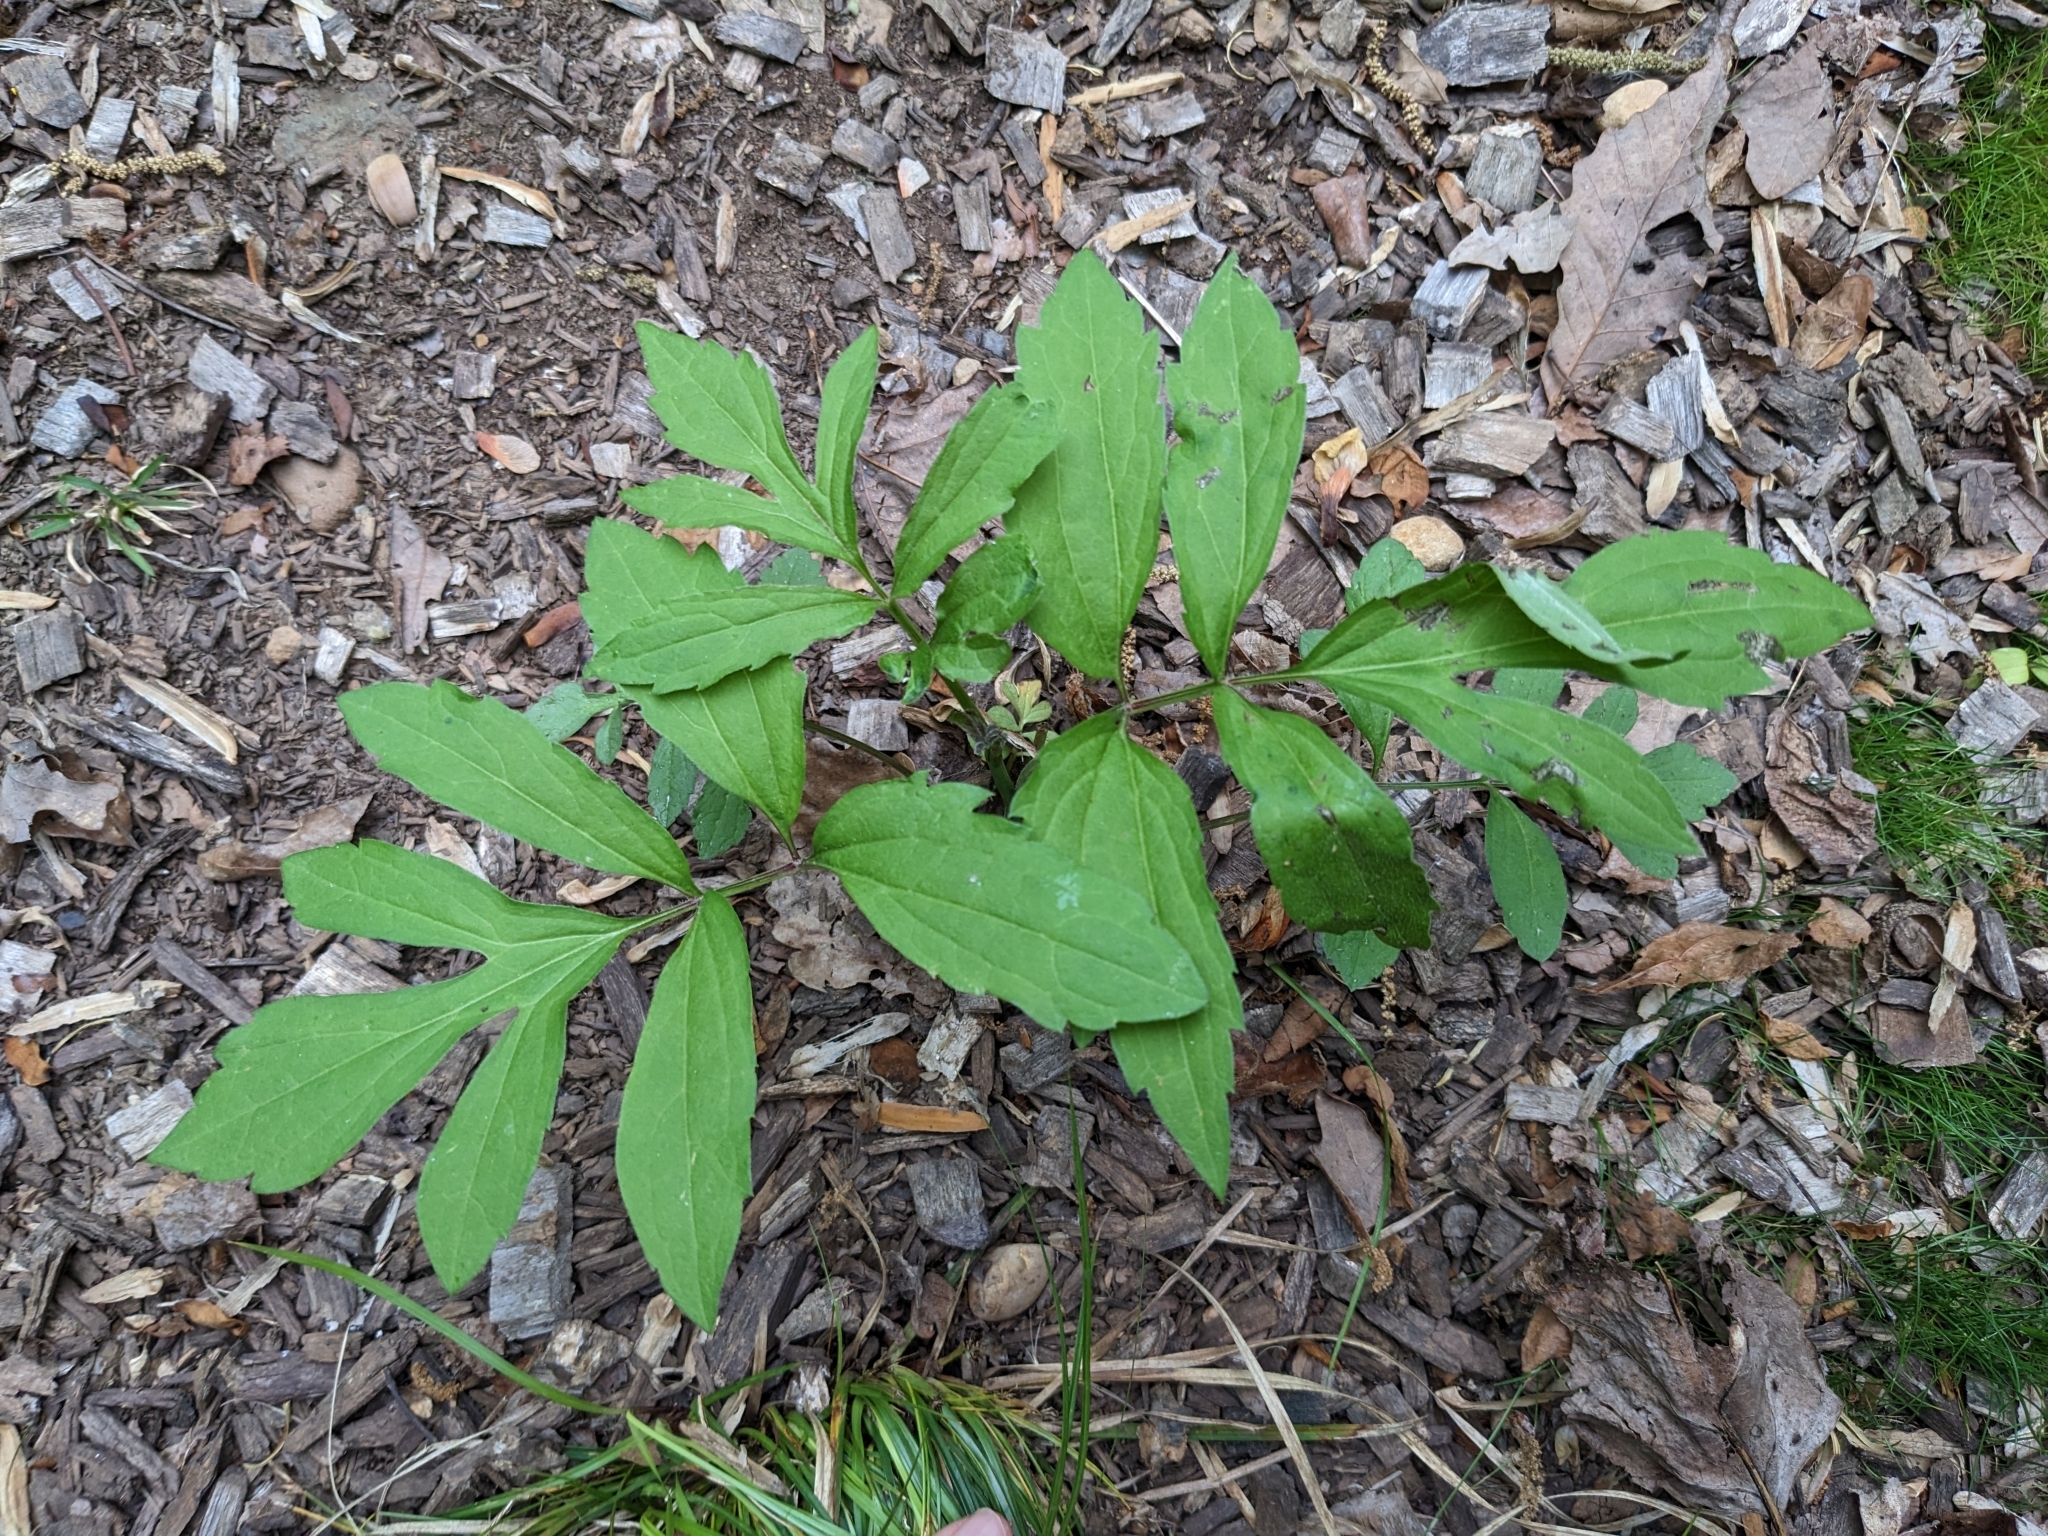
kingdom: Plantae
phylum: Tracheophyta
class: Magnoliopsida
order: Asterales
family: Asteraceae
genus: Rudbeckia
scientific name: Rudbeckia laciniata
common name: Coneflower
